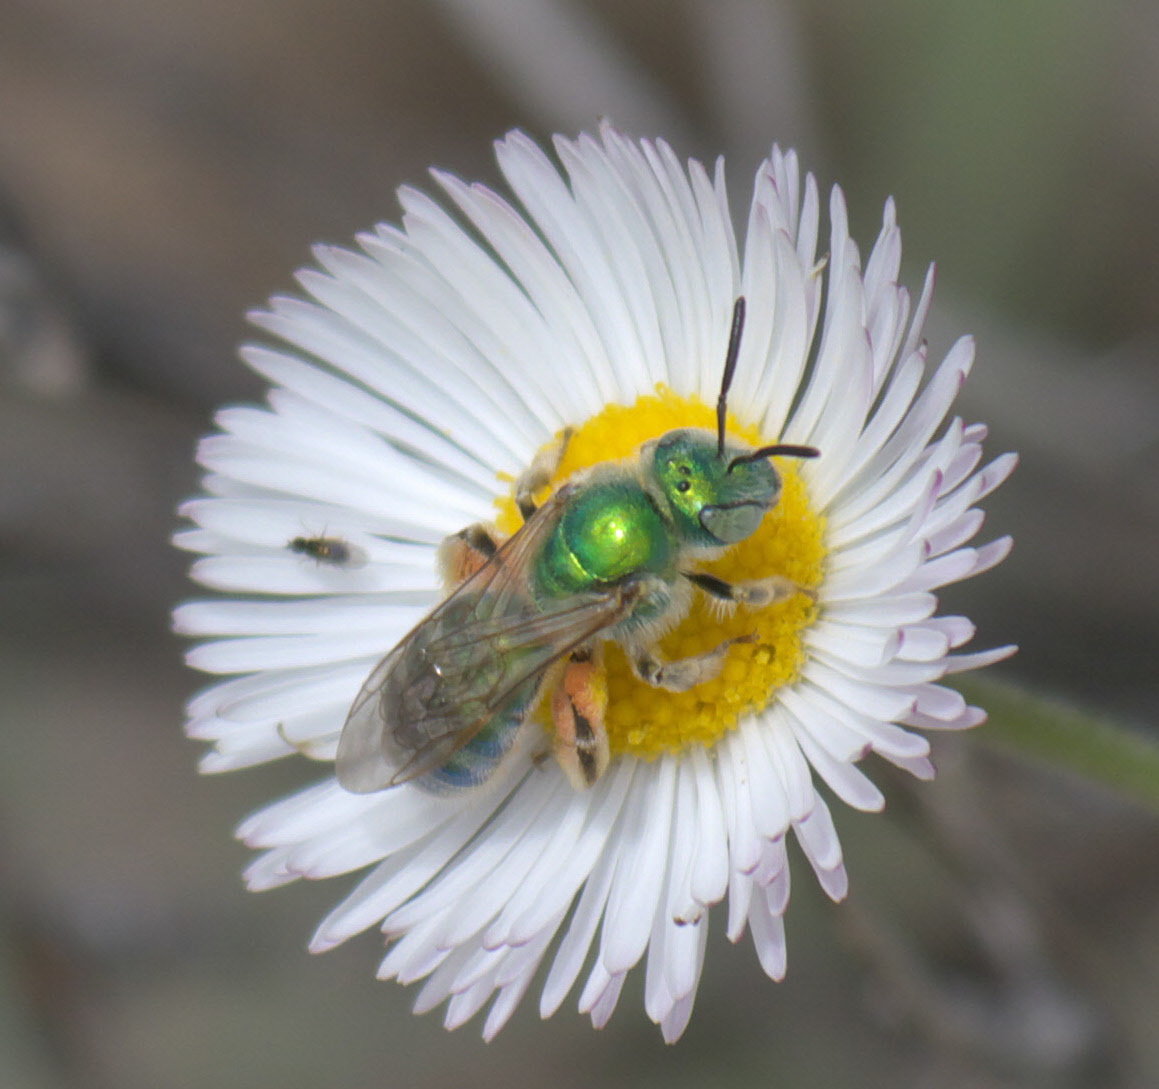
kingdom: Animalia
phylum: Arthropoda
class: Insecta
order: Hymenoptera
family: Halictidae
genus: Agapostemon
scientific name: Agapostemon
